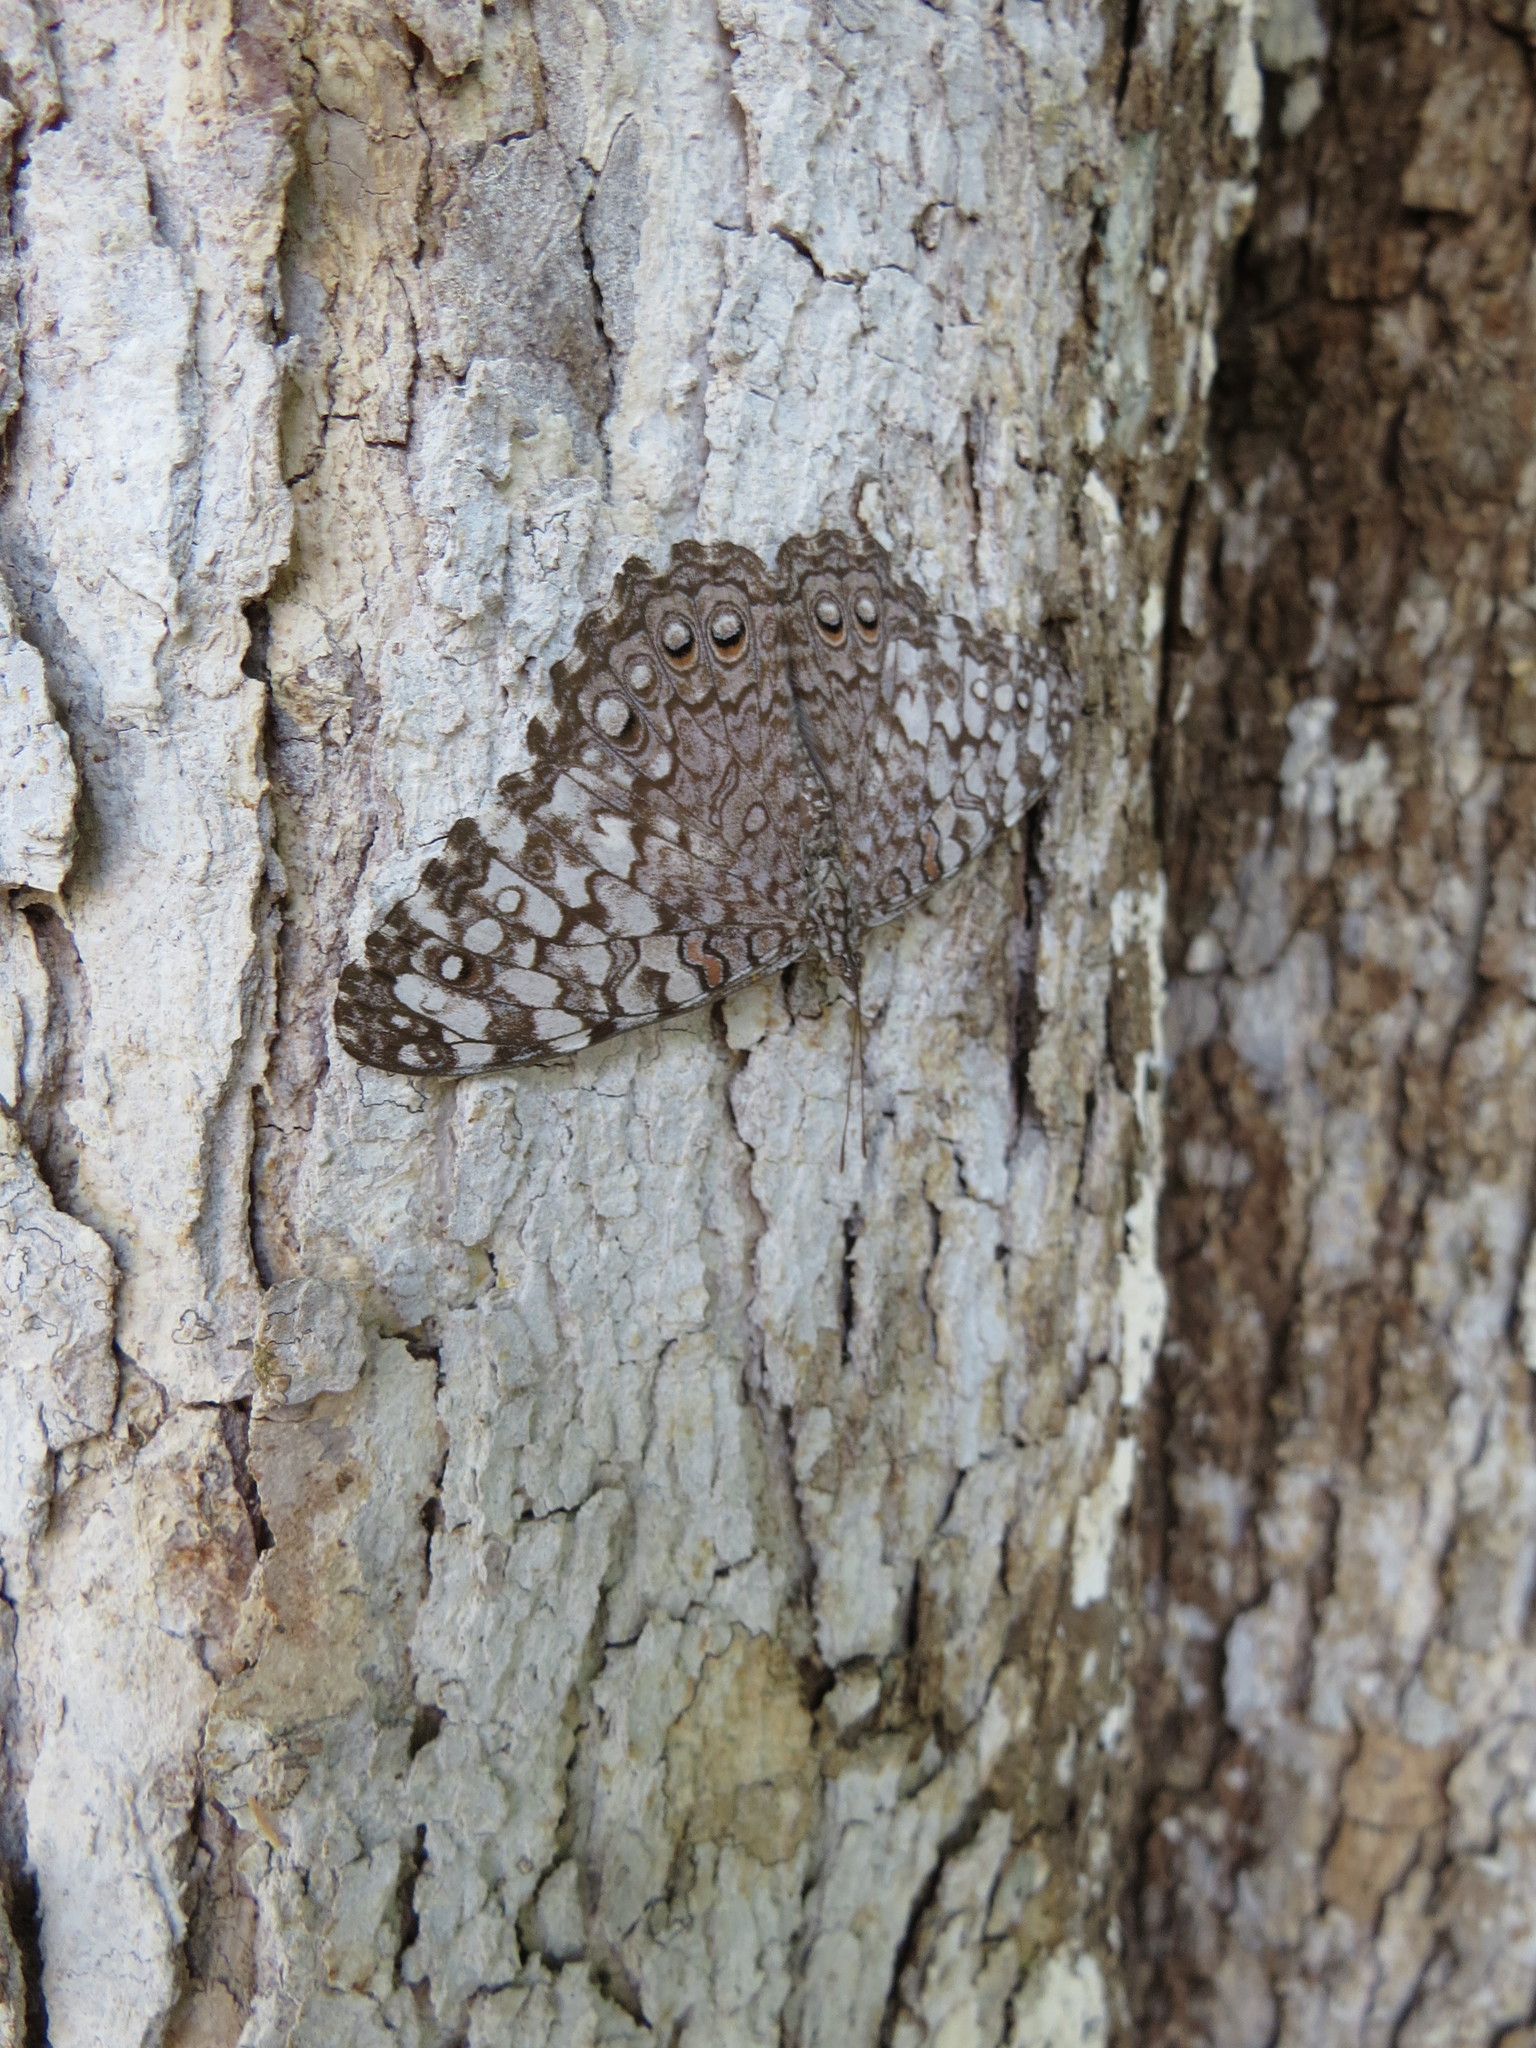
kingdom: Animalia
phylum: Arthropoda
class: Insecta
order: Lepidoptera
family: Nymphalidae
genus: Hamadryas
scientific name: Hamadryas februa
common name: Gray cracker
